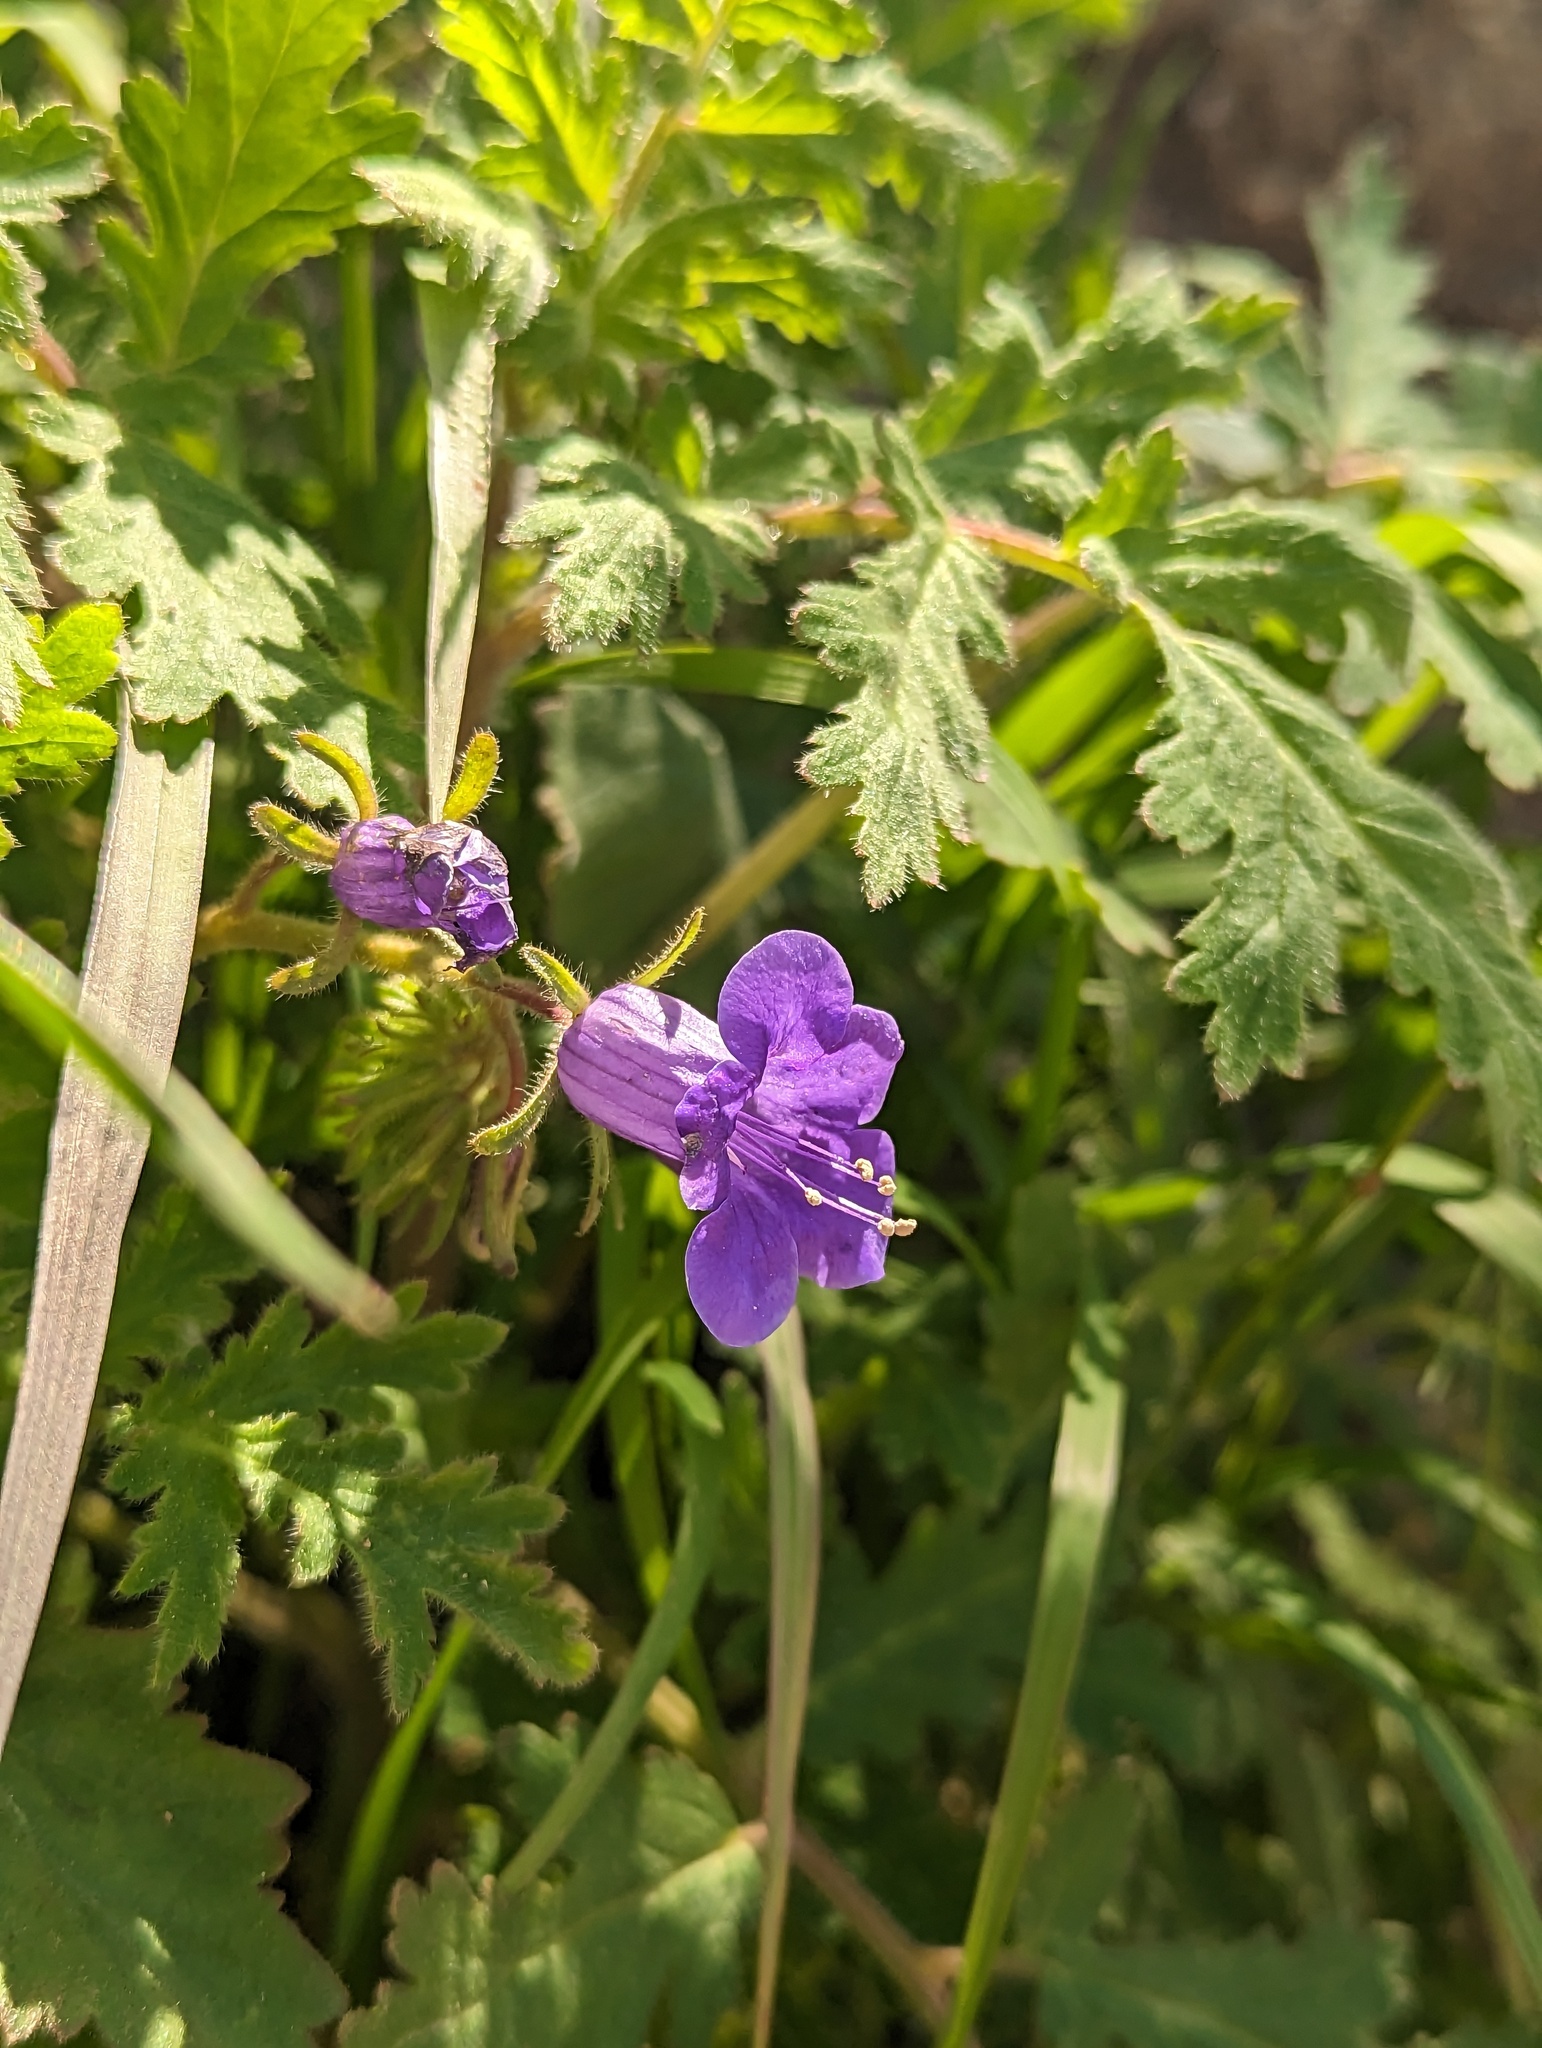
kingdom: Plantae
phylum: Tracheophyta
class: Magnoliopsida
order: Boraginales
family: Hydrophyllaceae
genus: Phacelia
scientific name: Phacelia minor
